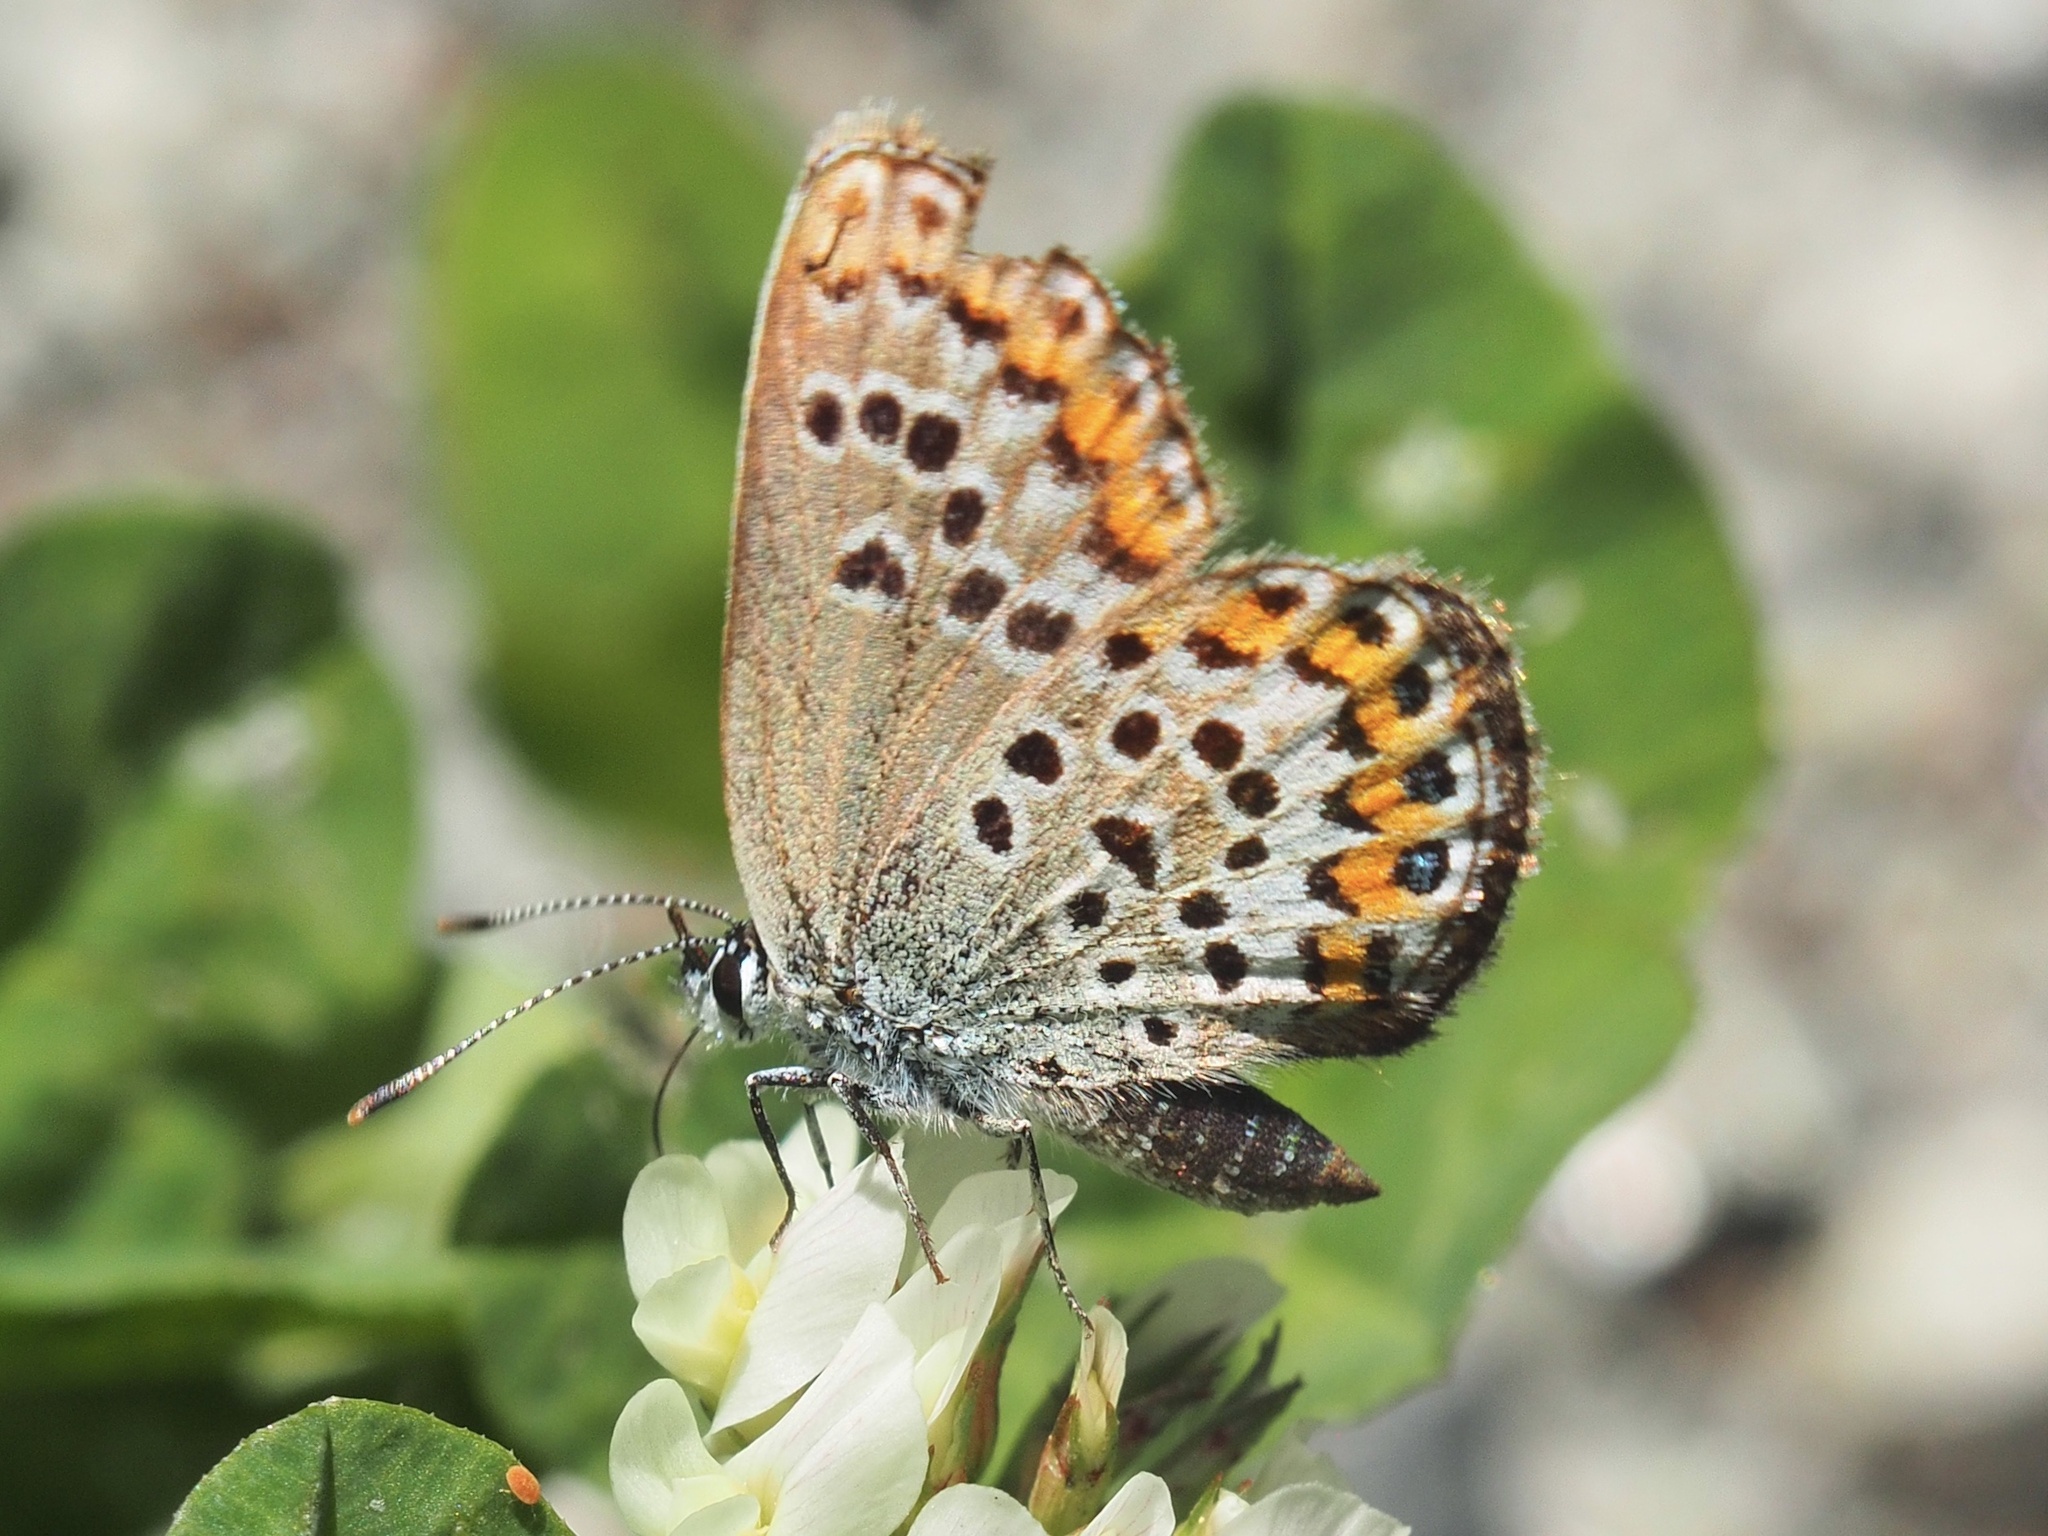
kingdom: Animalia
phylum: Arthropoda
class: Insecta
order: Lepidoptera
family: Lycaenidae
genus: Plebejus
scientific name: Plebejus argus
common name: Silver-studded blue
